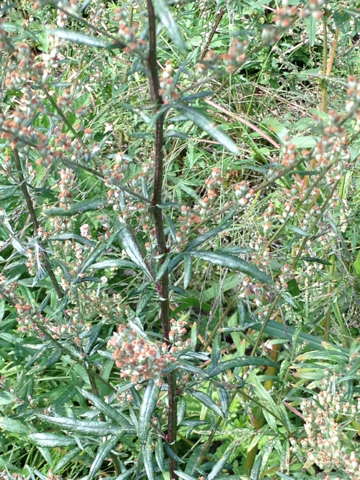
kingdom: Plantae
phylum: Tracheophyta
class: Magnoliopsida
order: Asterales
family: Asteraceae
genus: Artemisia
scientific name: Artemisia vulgaris
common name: Mugwort
